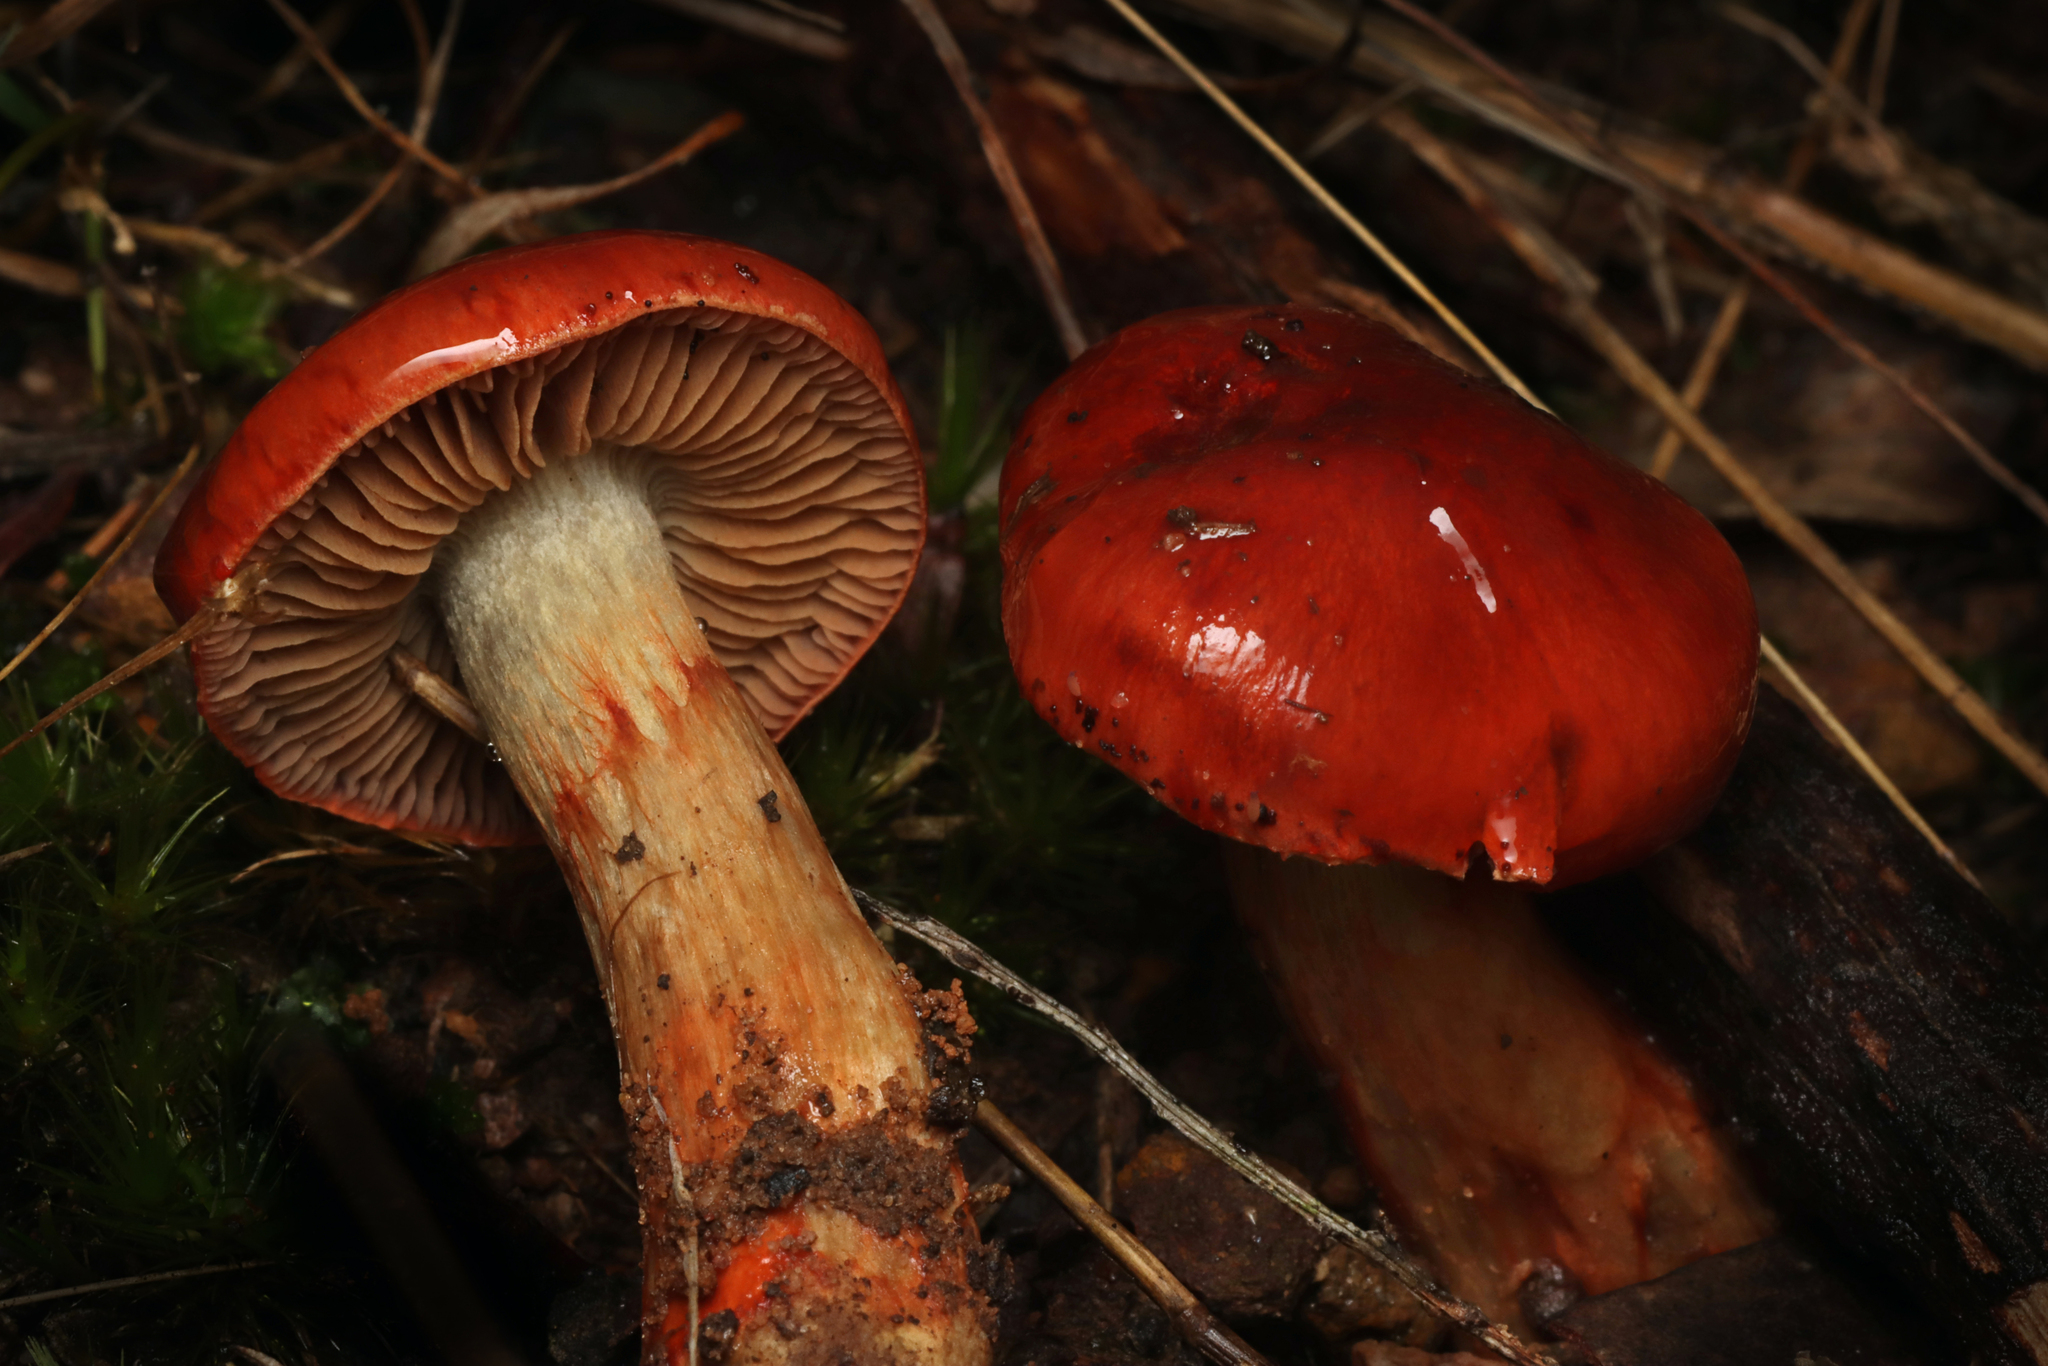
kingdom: Fungi
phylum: Basidiomycota
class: Agaricomycetes
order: Agaricales
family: Cortinariaceae
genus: Cortinarius
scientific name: Cortinarius suberythraeus
